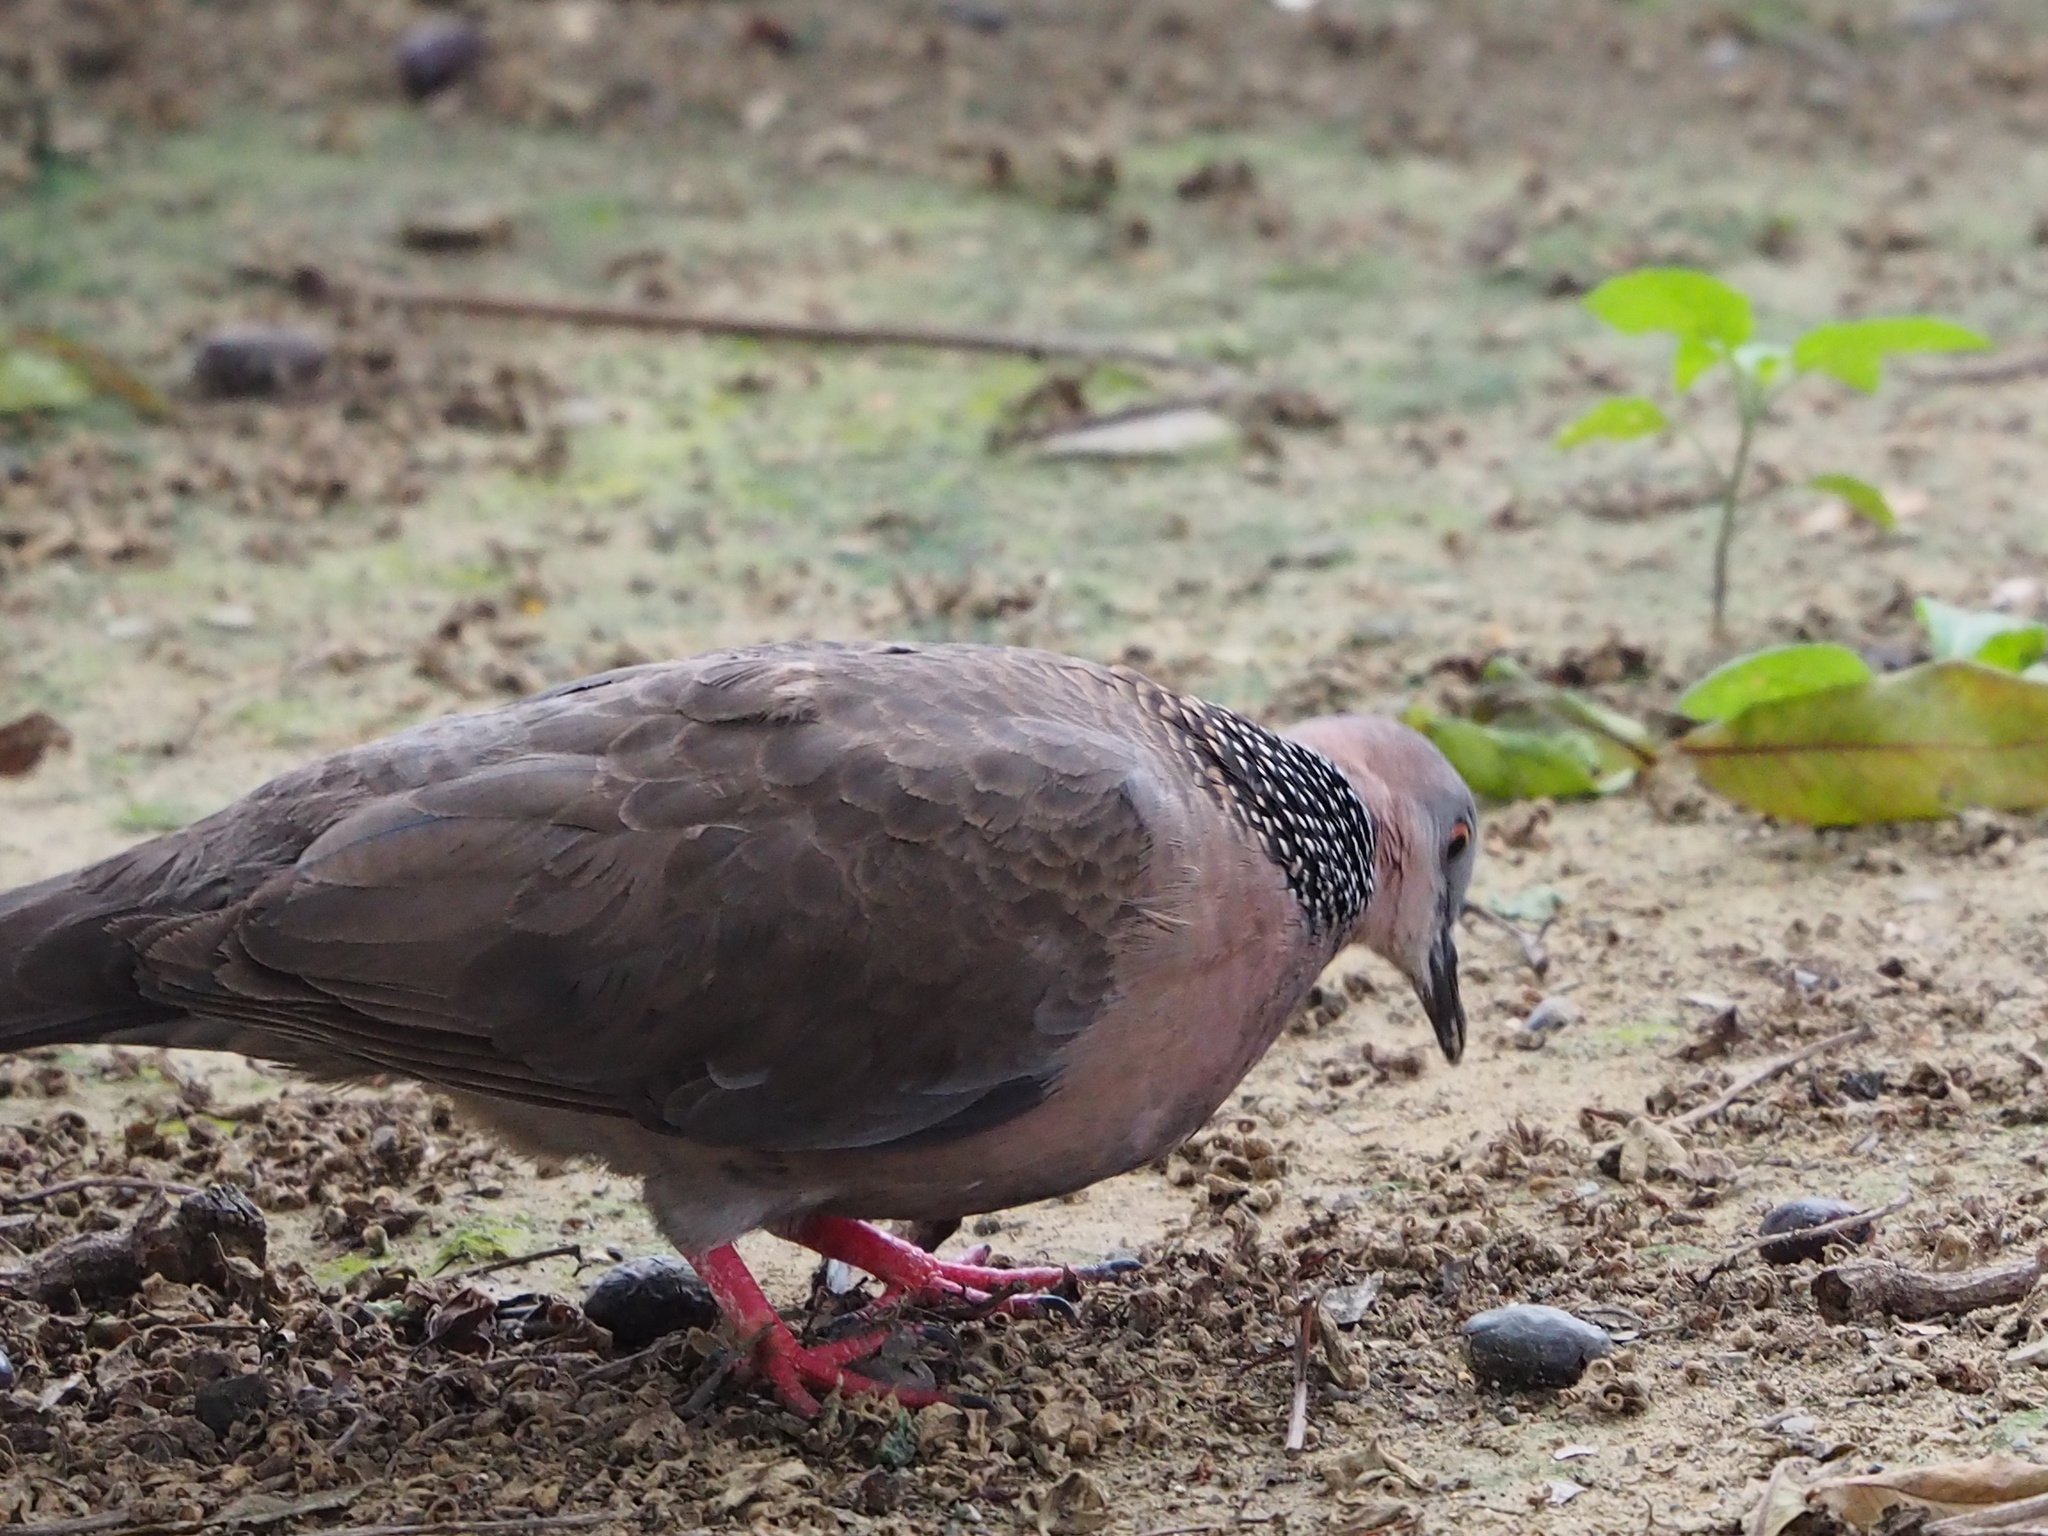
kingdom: Animalia
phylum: Chordata
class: Aves
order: Columbiformes
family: Columbidae
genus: Spilopelia
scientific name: Spilopelia chinensis
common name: Spotted dove
